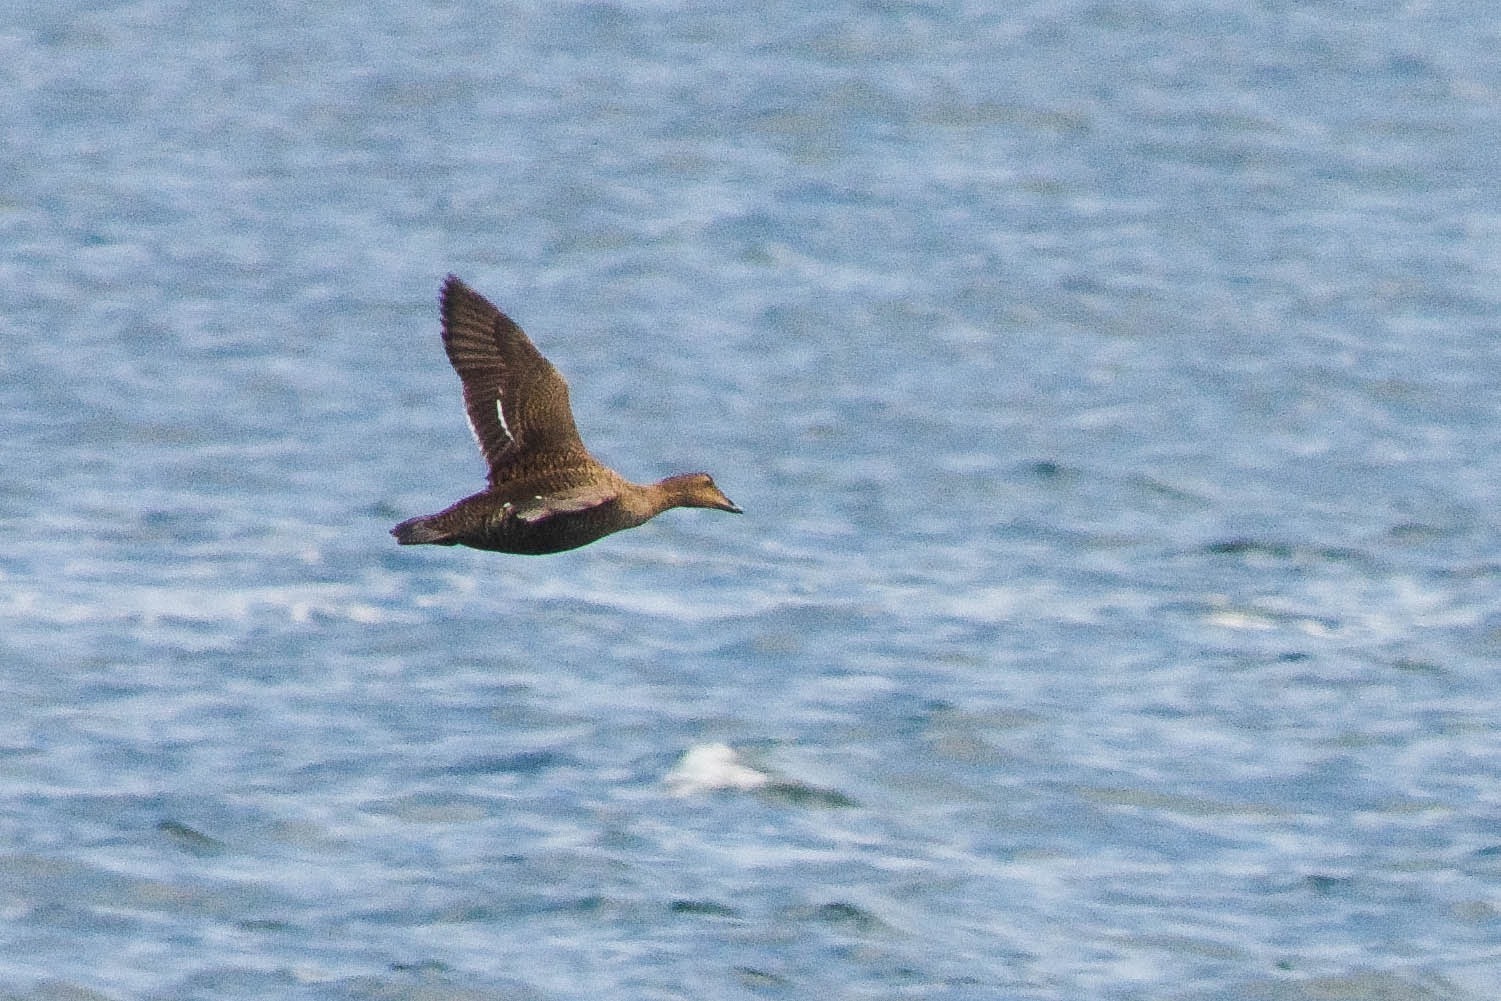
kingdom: Animalia
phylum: Chordata
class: Aves
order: Anseriformes
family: Anatidae
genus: Somateria
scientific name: Somateria mollissima
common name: Common eider
